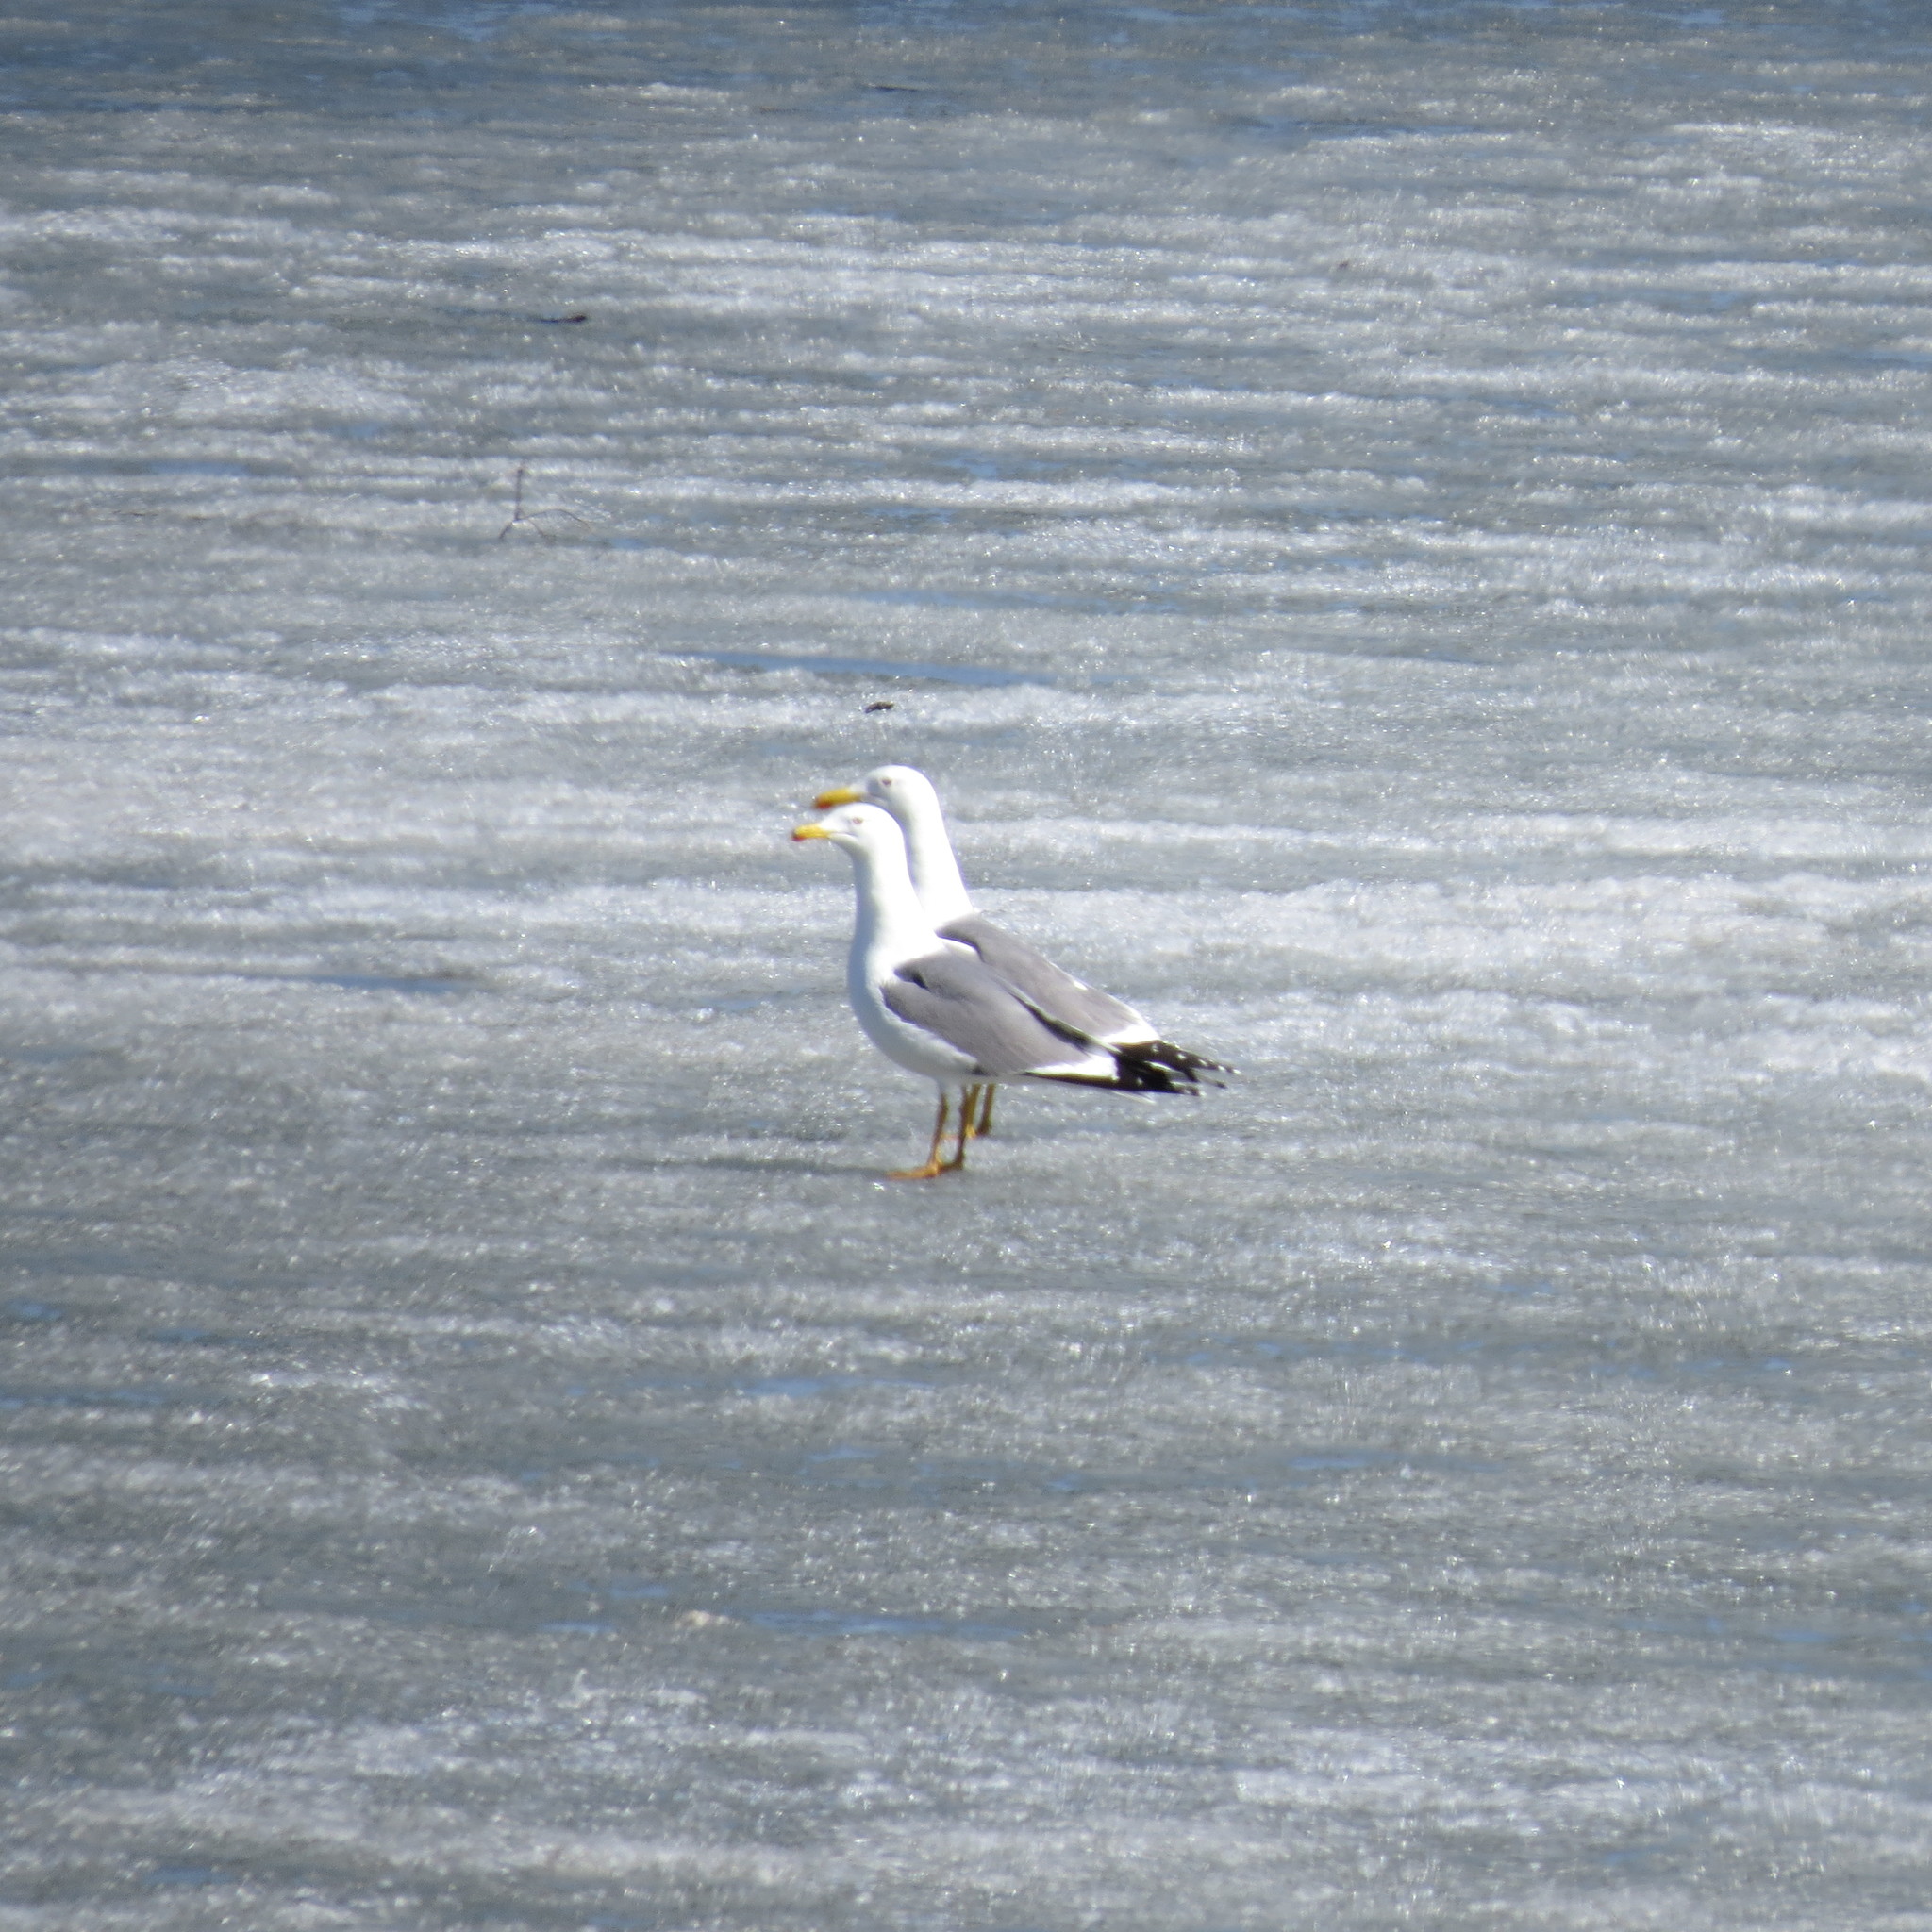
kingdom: Animalia
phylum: Chordata
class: Aves
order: Charadriiformes
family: Laridae
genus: Larus
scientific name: Larus fuscus
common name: Lesser black-backed gull
